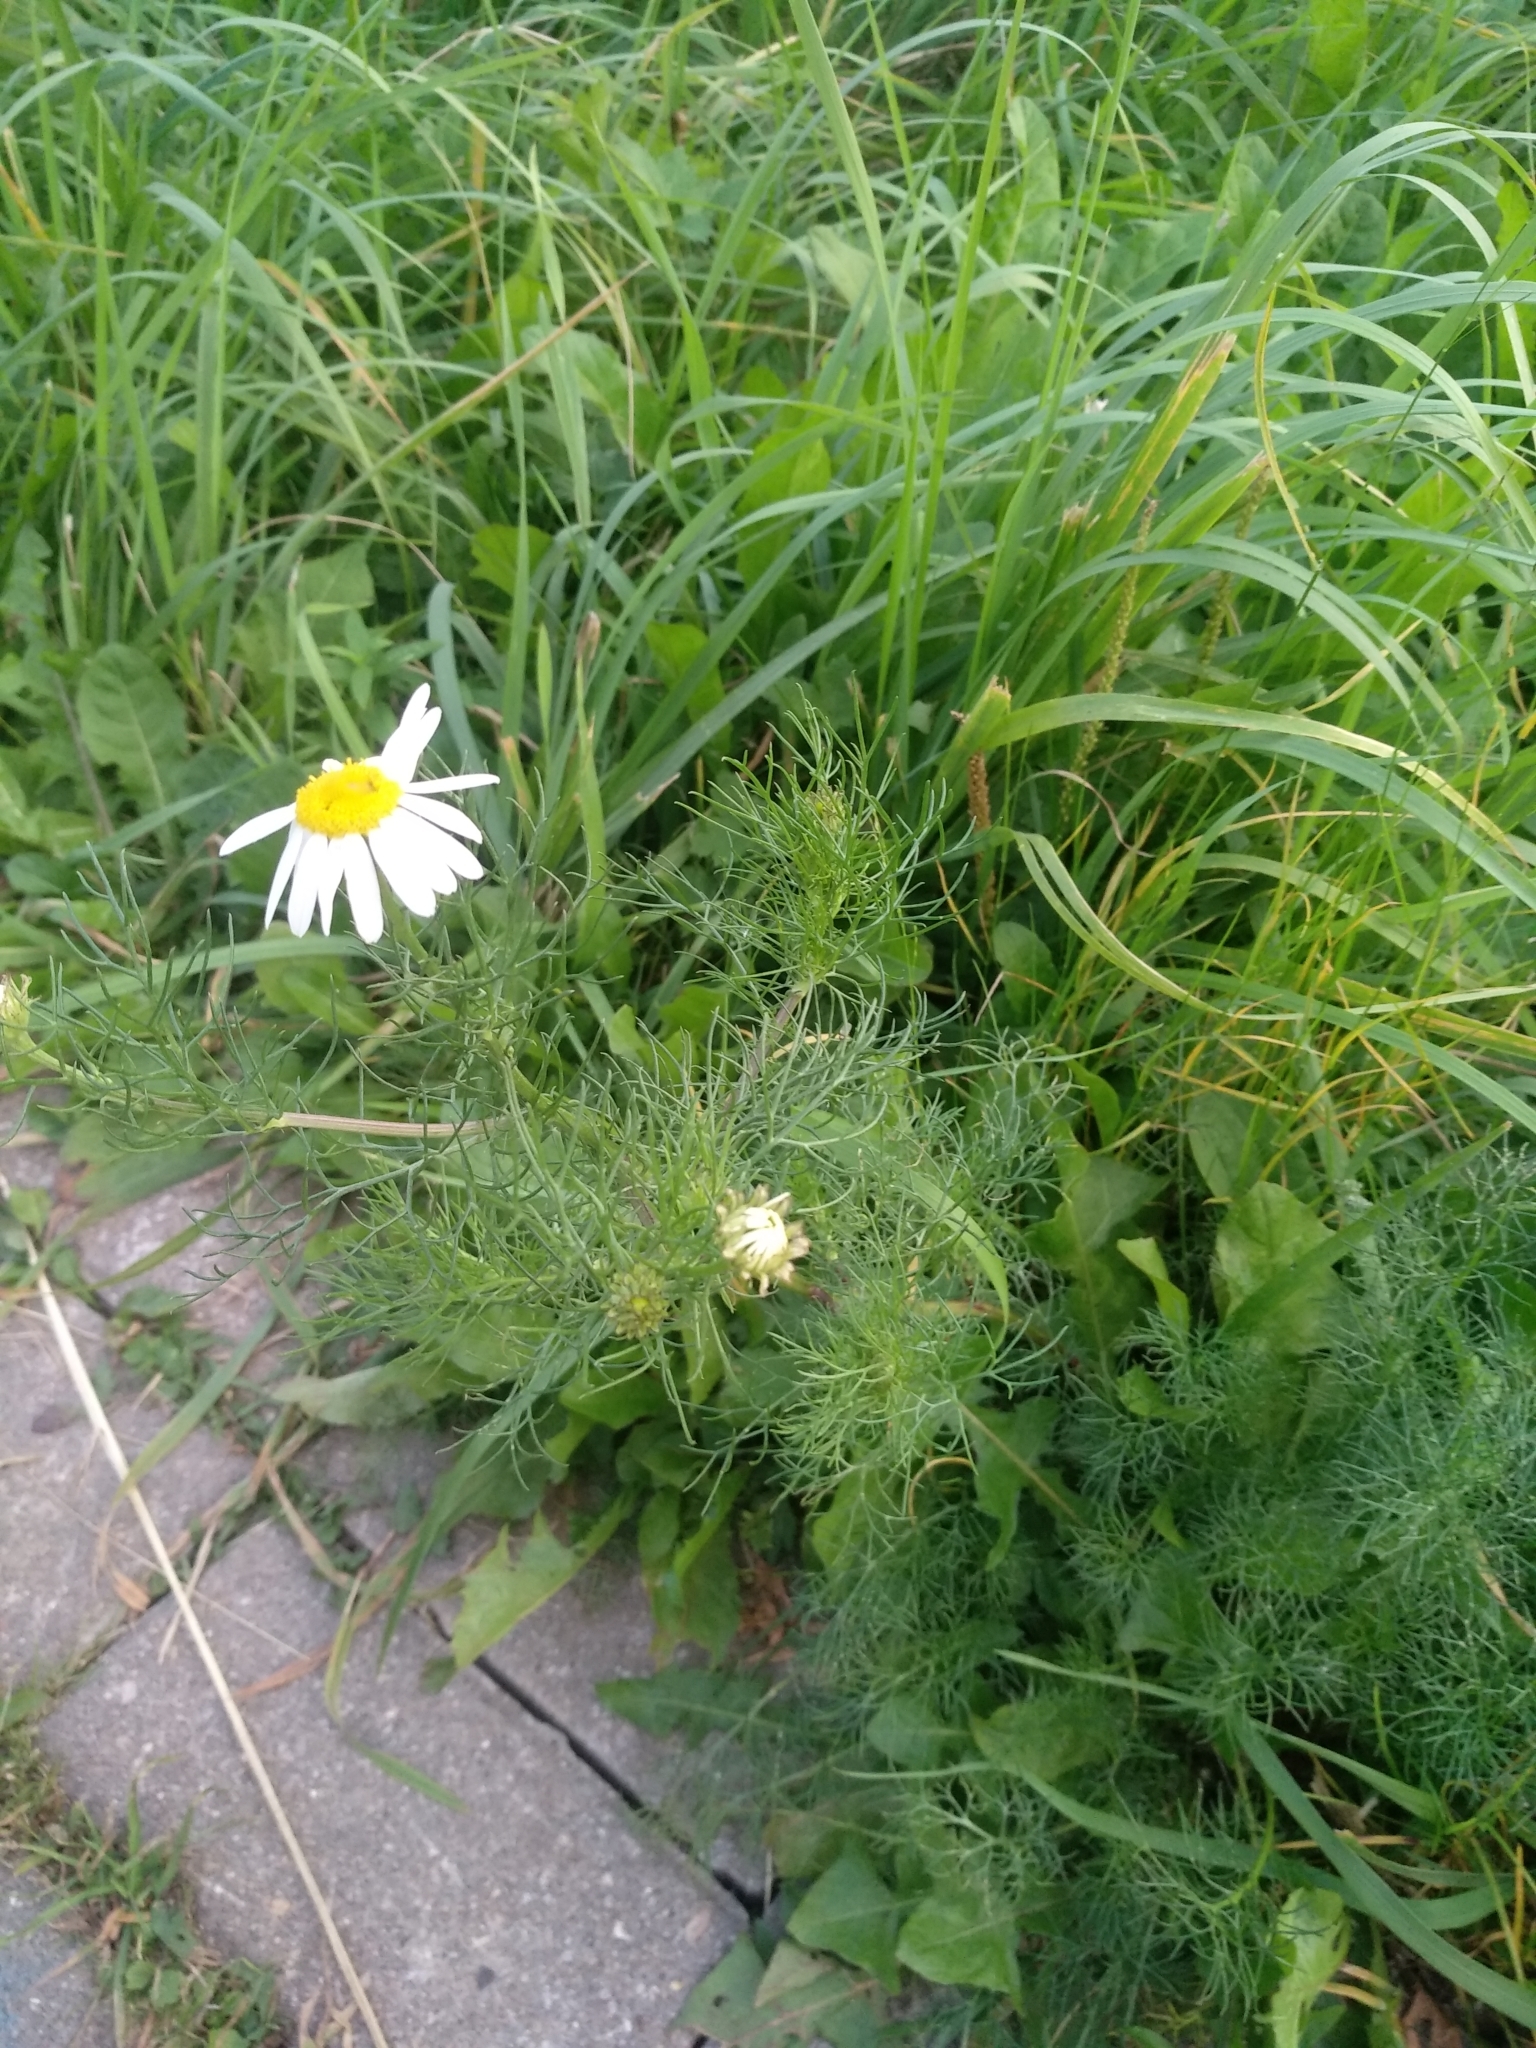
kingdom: Plantae
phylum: Tracheophyta
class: Magnoliopsida
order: Asterales
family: Asteraceae
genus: Tripleurospermum
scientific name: Tripleurospermum inodorum
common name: Scentless mayweed
